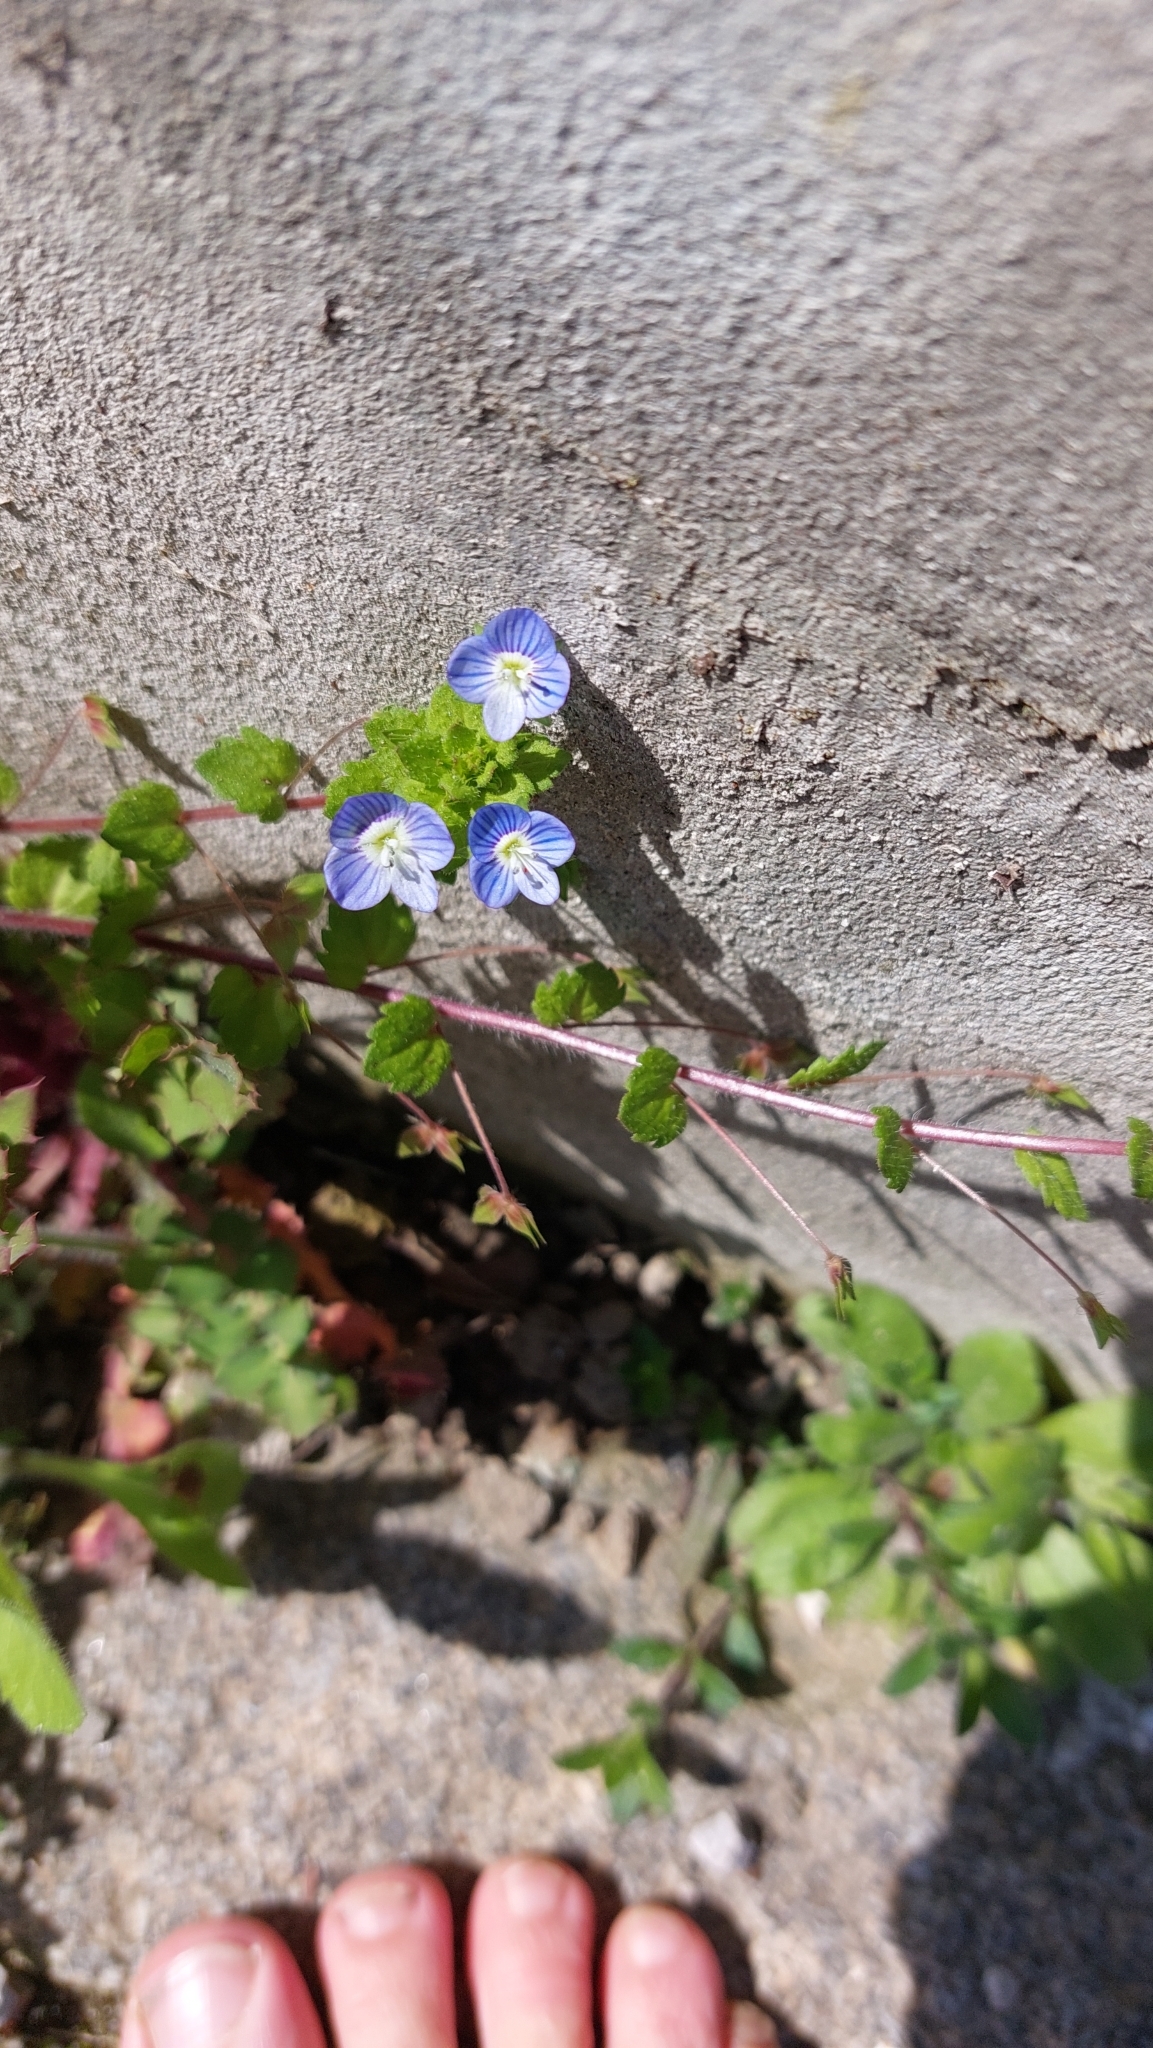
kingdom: Plantae
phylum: Tracheophyta
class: Magnoliopsida
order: Lamiales
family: Plantaginaceae
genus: Veronica
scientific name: Veronica persica
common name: Common field-speedwell
